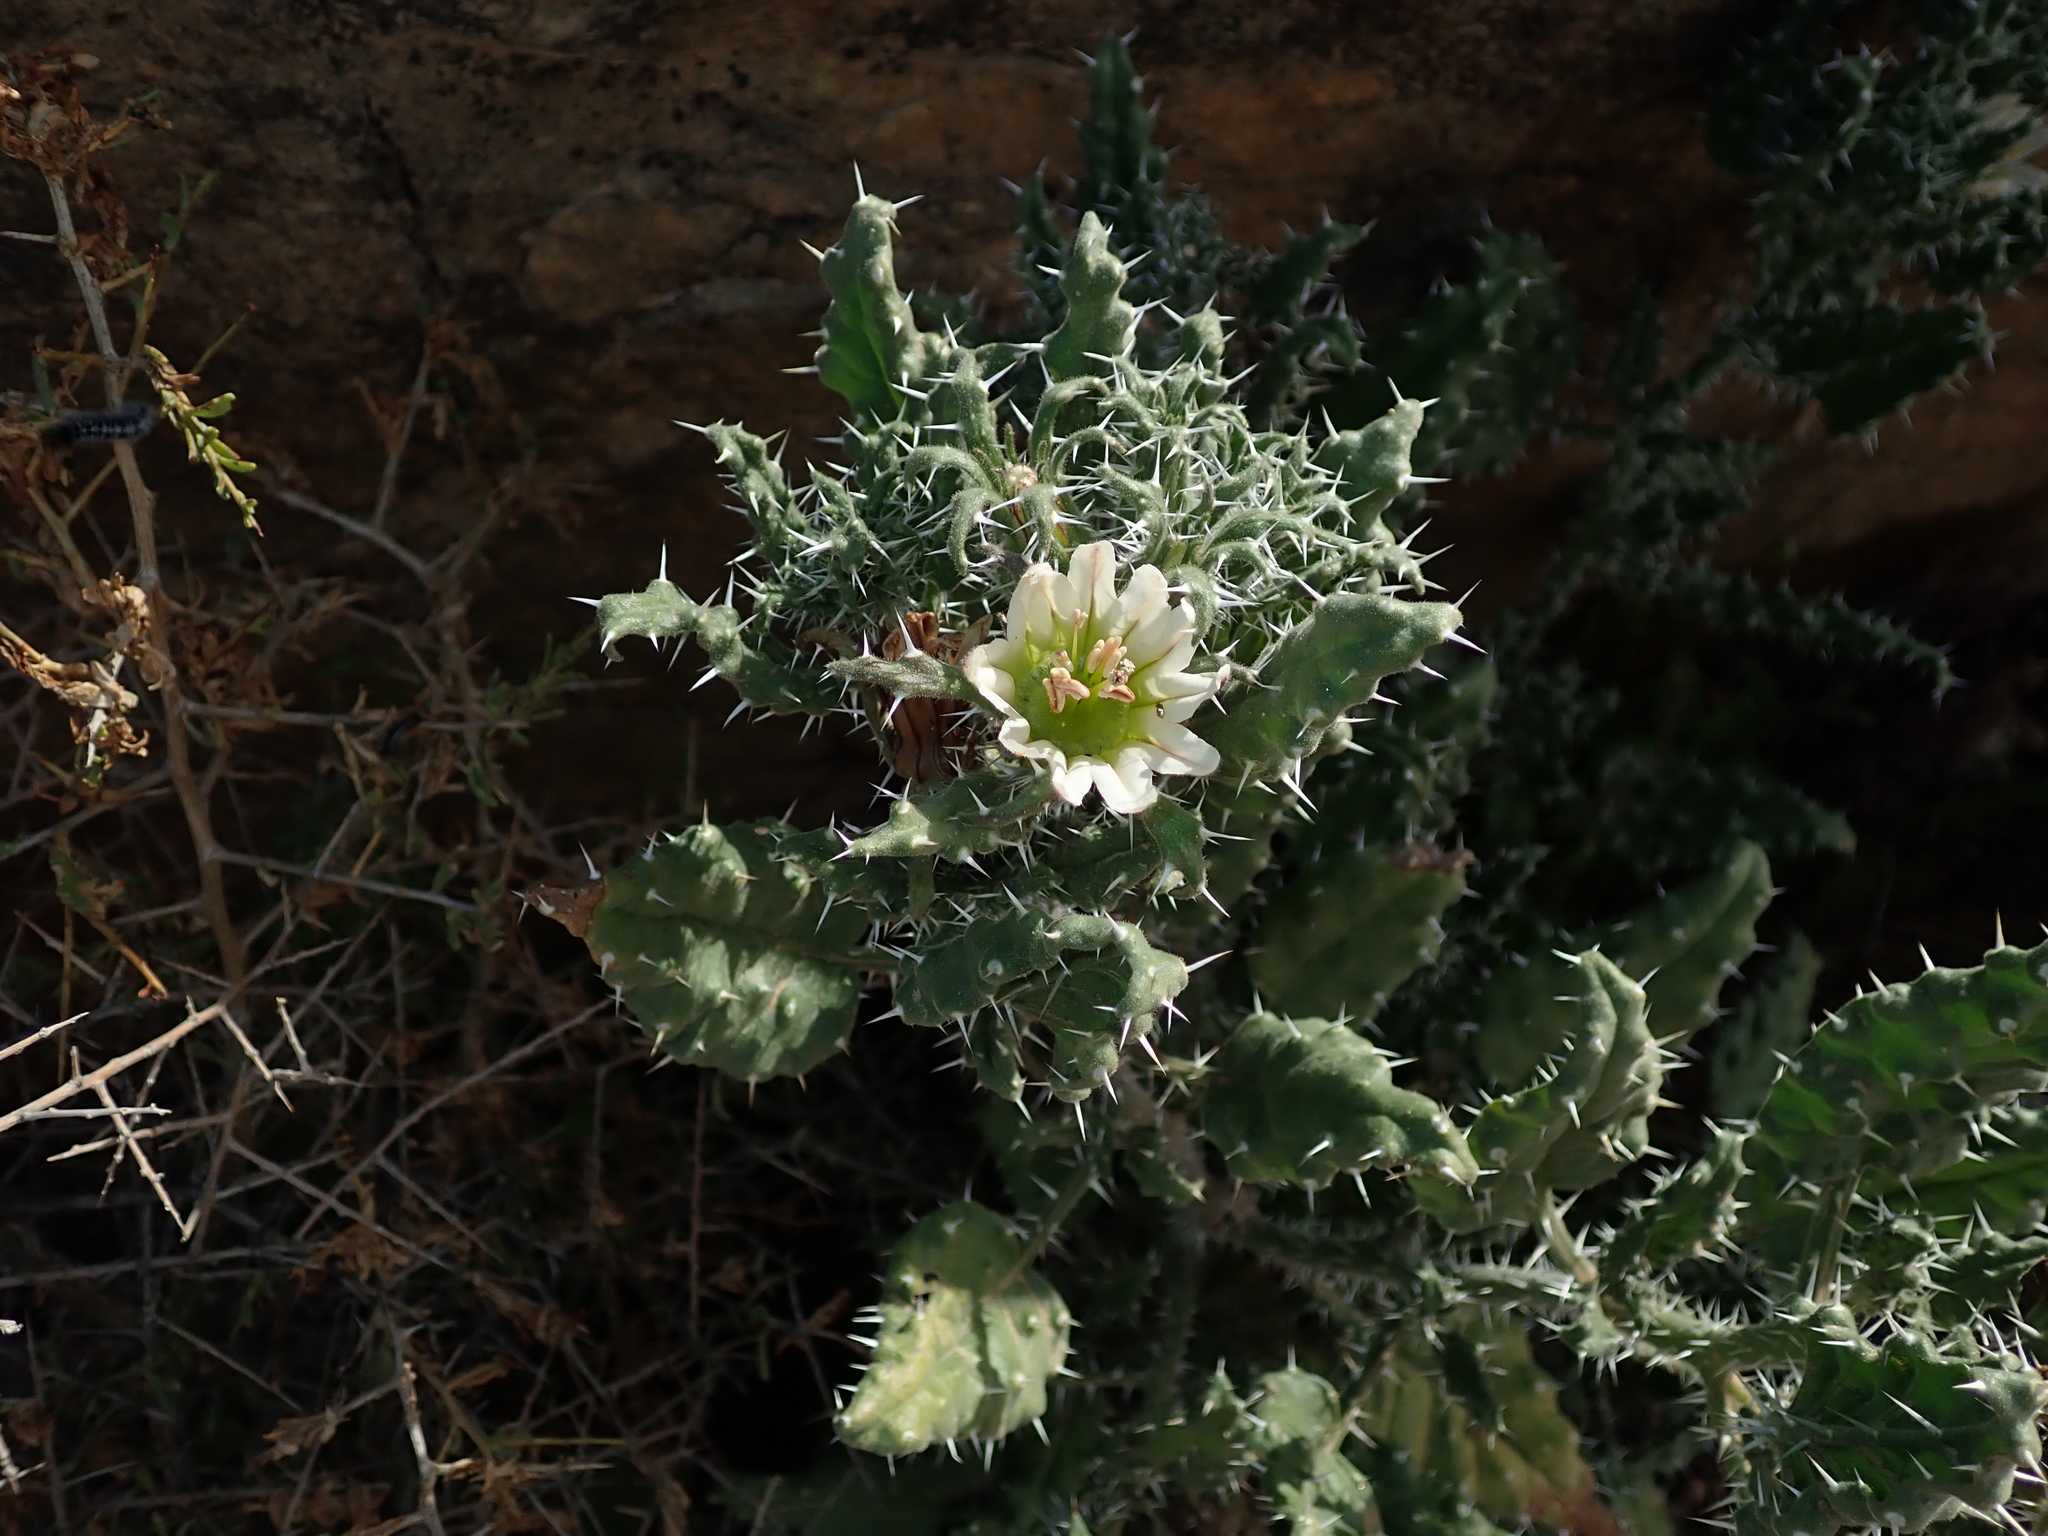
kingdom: Plantae
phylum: Tracheophyta
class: Magnoliopsida
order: Boraginales
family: Boraginaceae
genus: Codon
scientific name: Codon royenii
